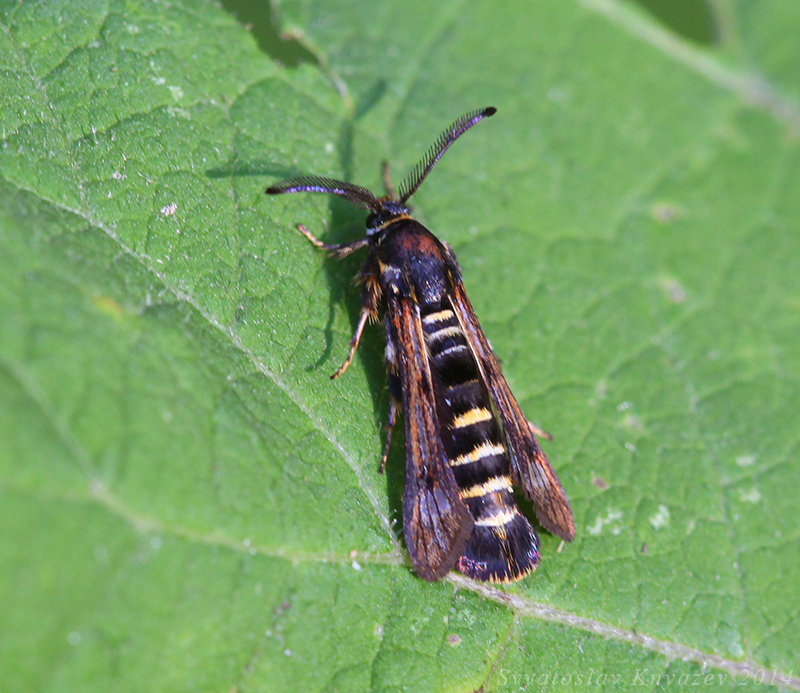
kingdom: Animalia
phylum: Arthropoda
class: Insecta
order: Lepidoptera
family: Sesiidae
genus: Pennisetia
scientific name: Pennisetia hylaeiformis
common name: Raspberry clearwing
